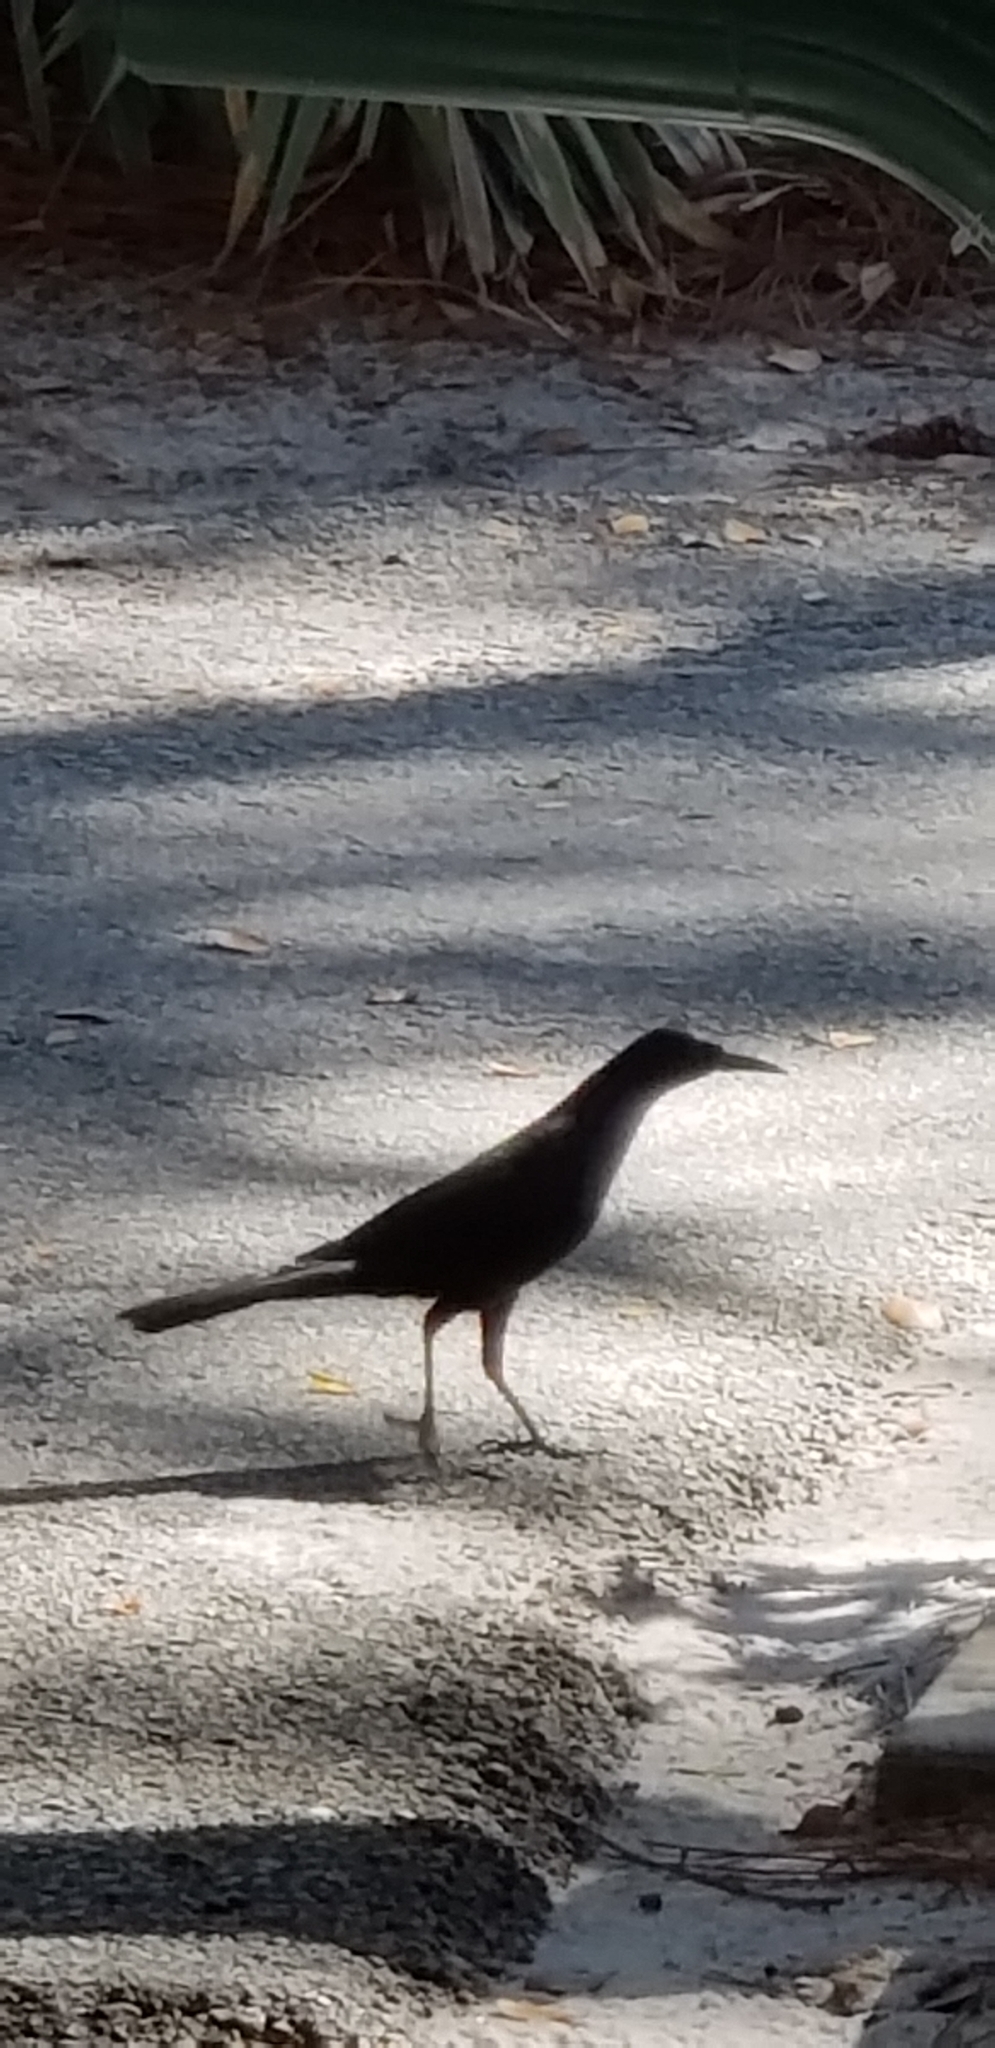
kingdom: Animalia
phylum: Chordata
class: Aves
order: Passeriformes
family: Icteridae
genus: Quiscalus
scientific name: Quiscalus major
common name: Boat-tailed grackle
